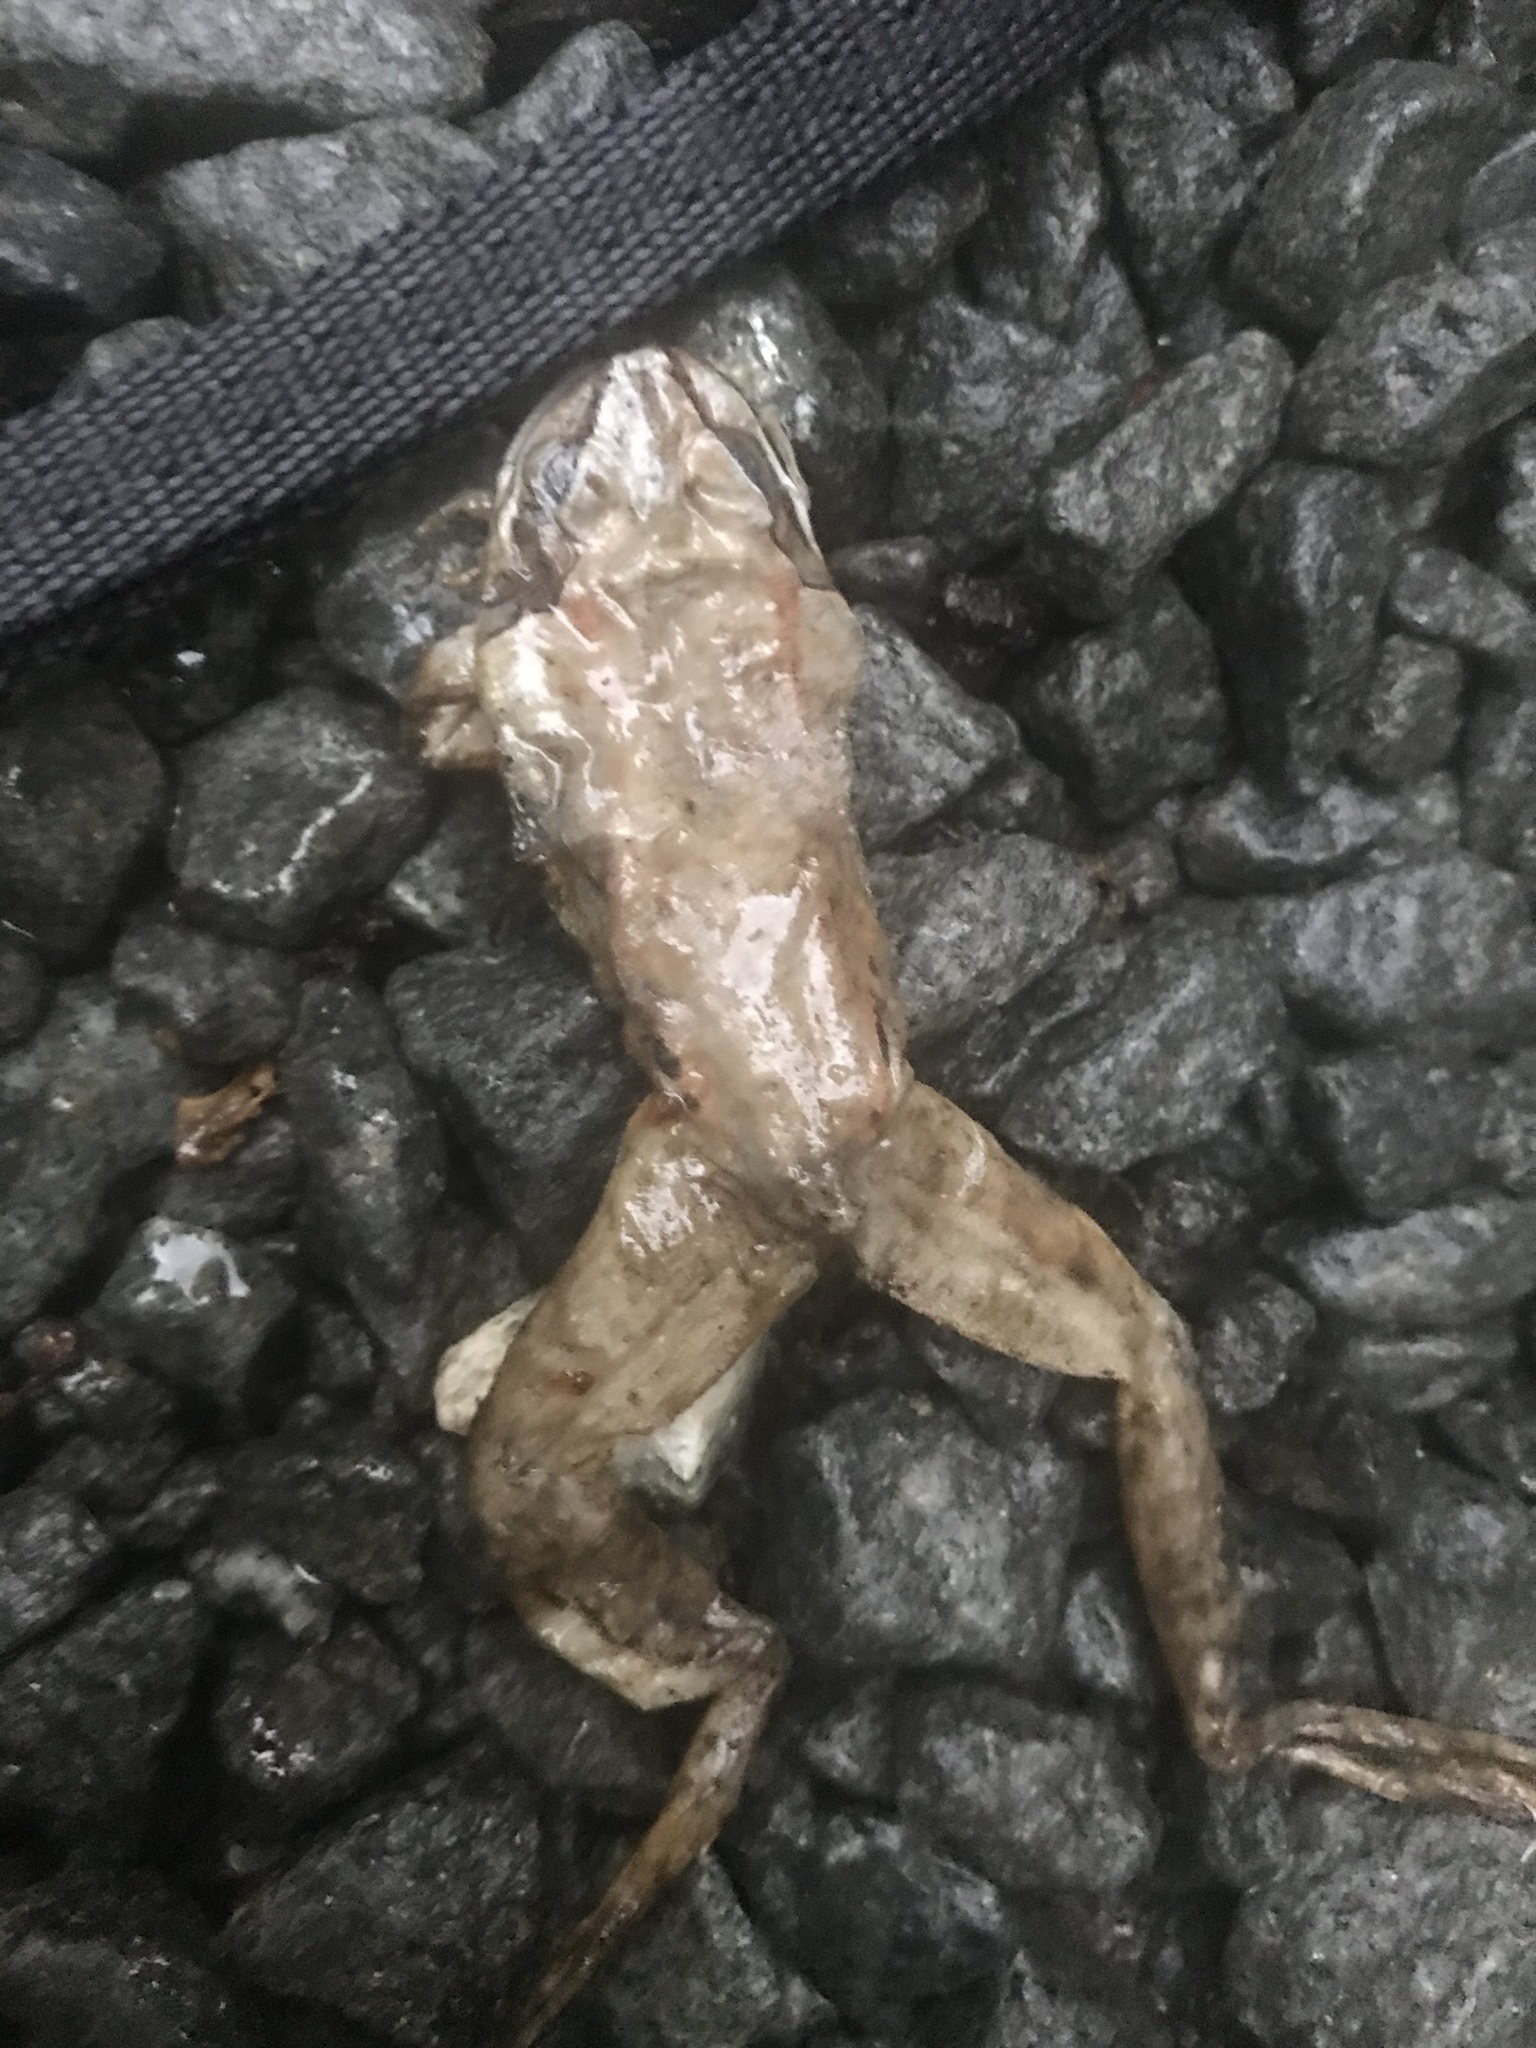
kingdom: Animalia
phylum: Chordata
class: Amphibia
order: Anura
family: Ranidae
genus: Lithobates
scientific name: Lithobates sylvaticus
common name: Wood frog
